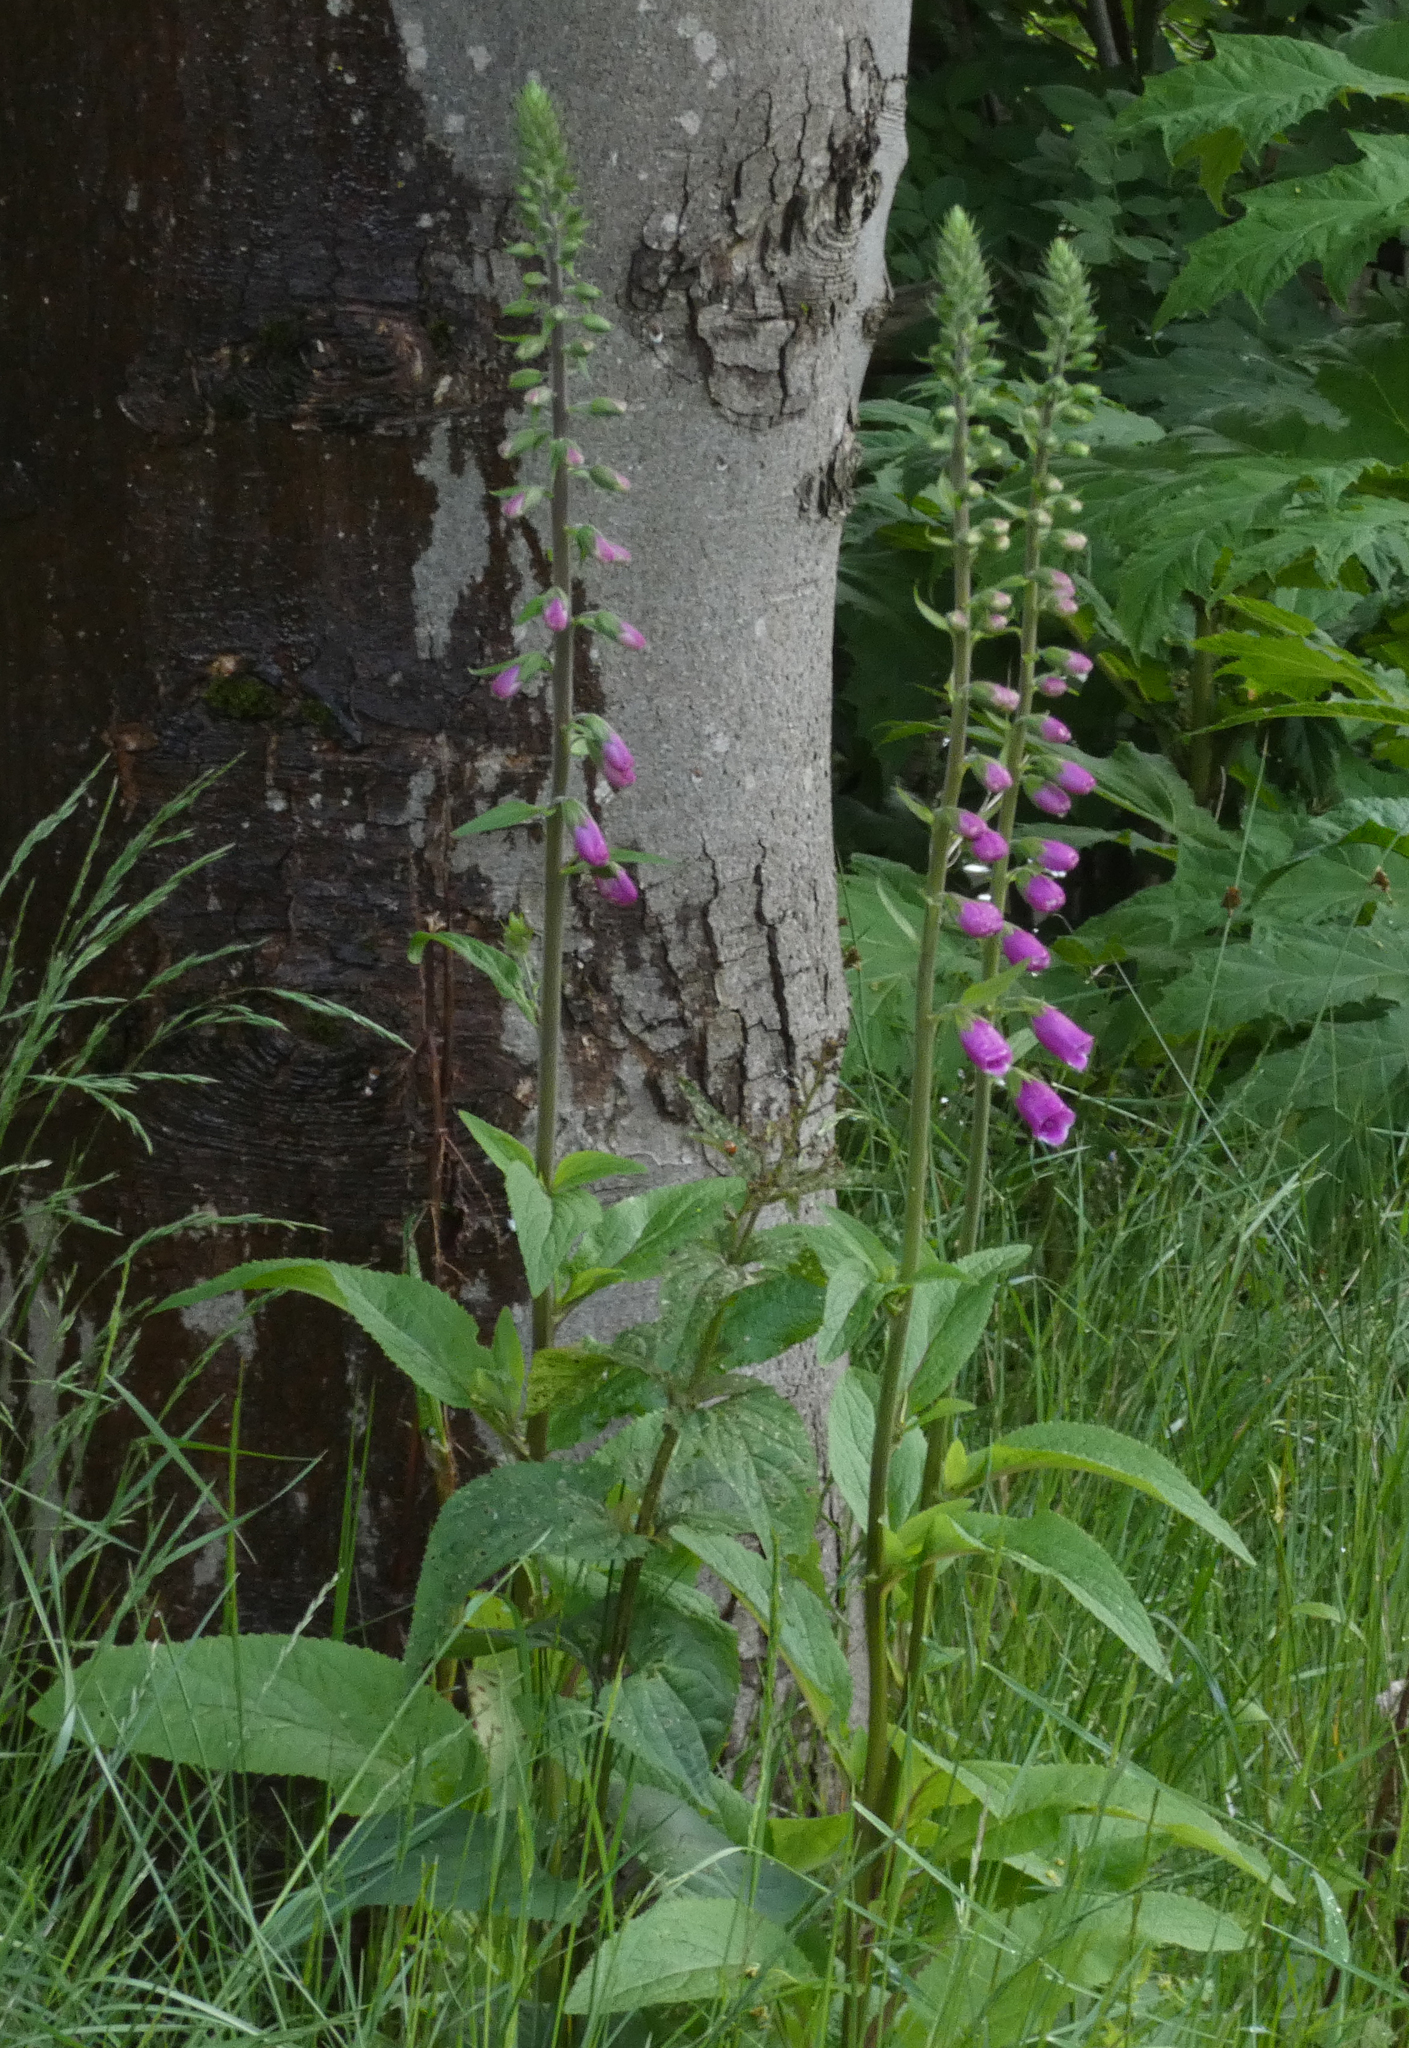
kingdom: Plantae
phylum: Tracheophyta
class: Magnoliopsida
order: Lamiales
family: Plantaginaceae
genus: Digitalis
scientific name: Digitalis purpurea
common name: Foxglove
